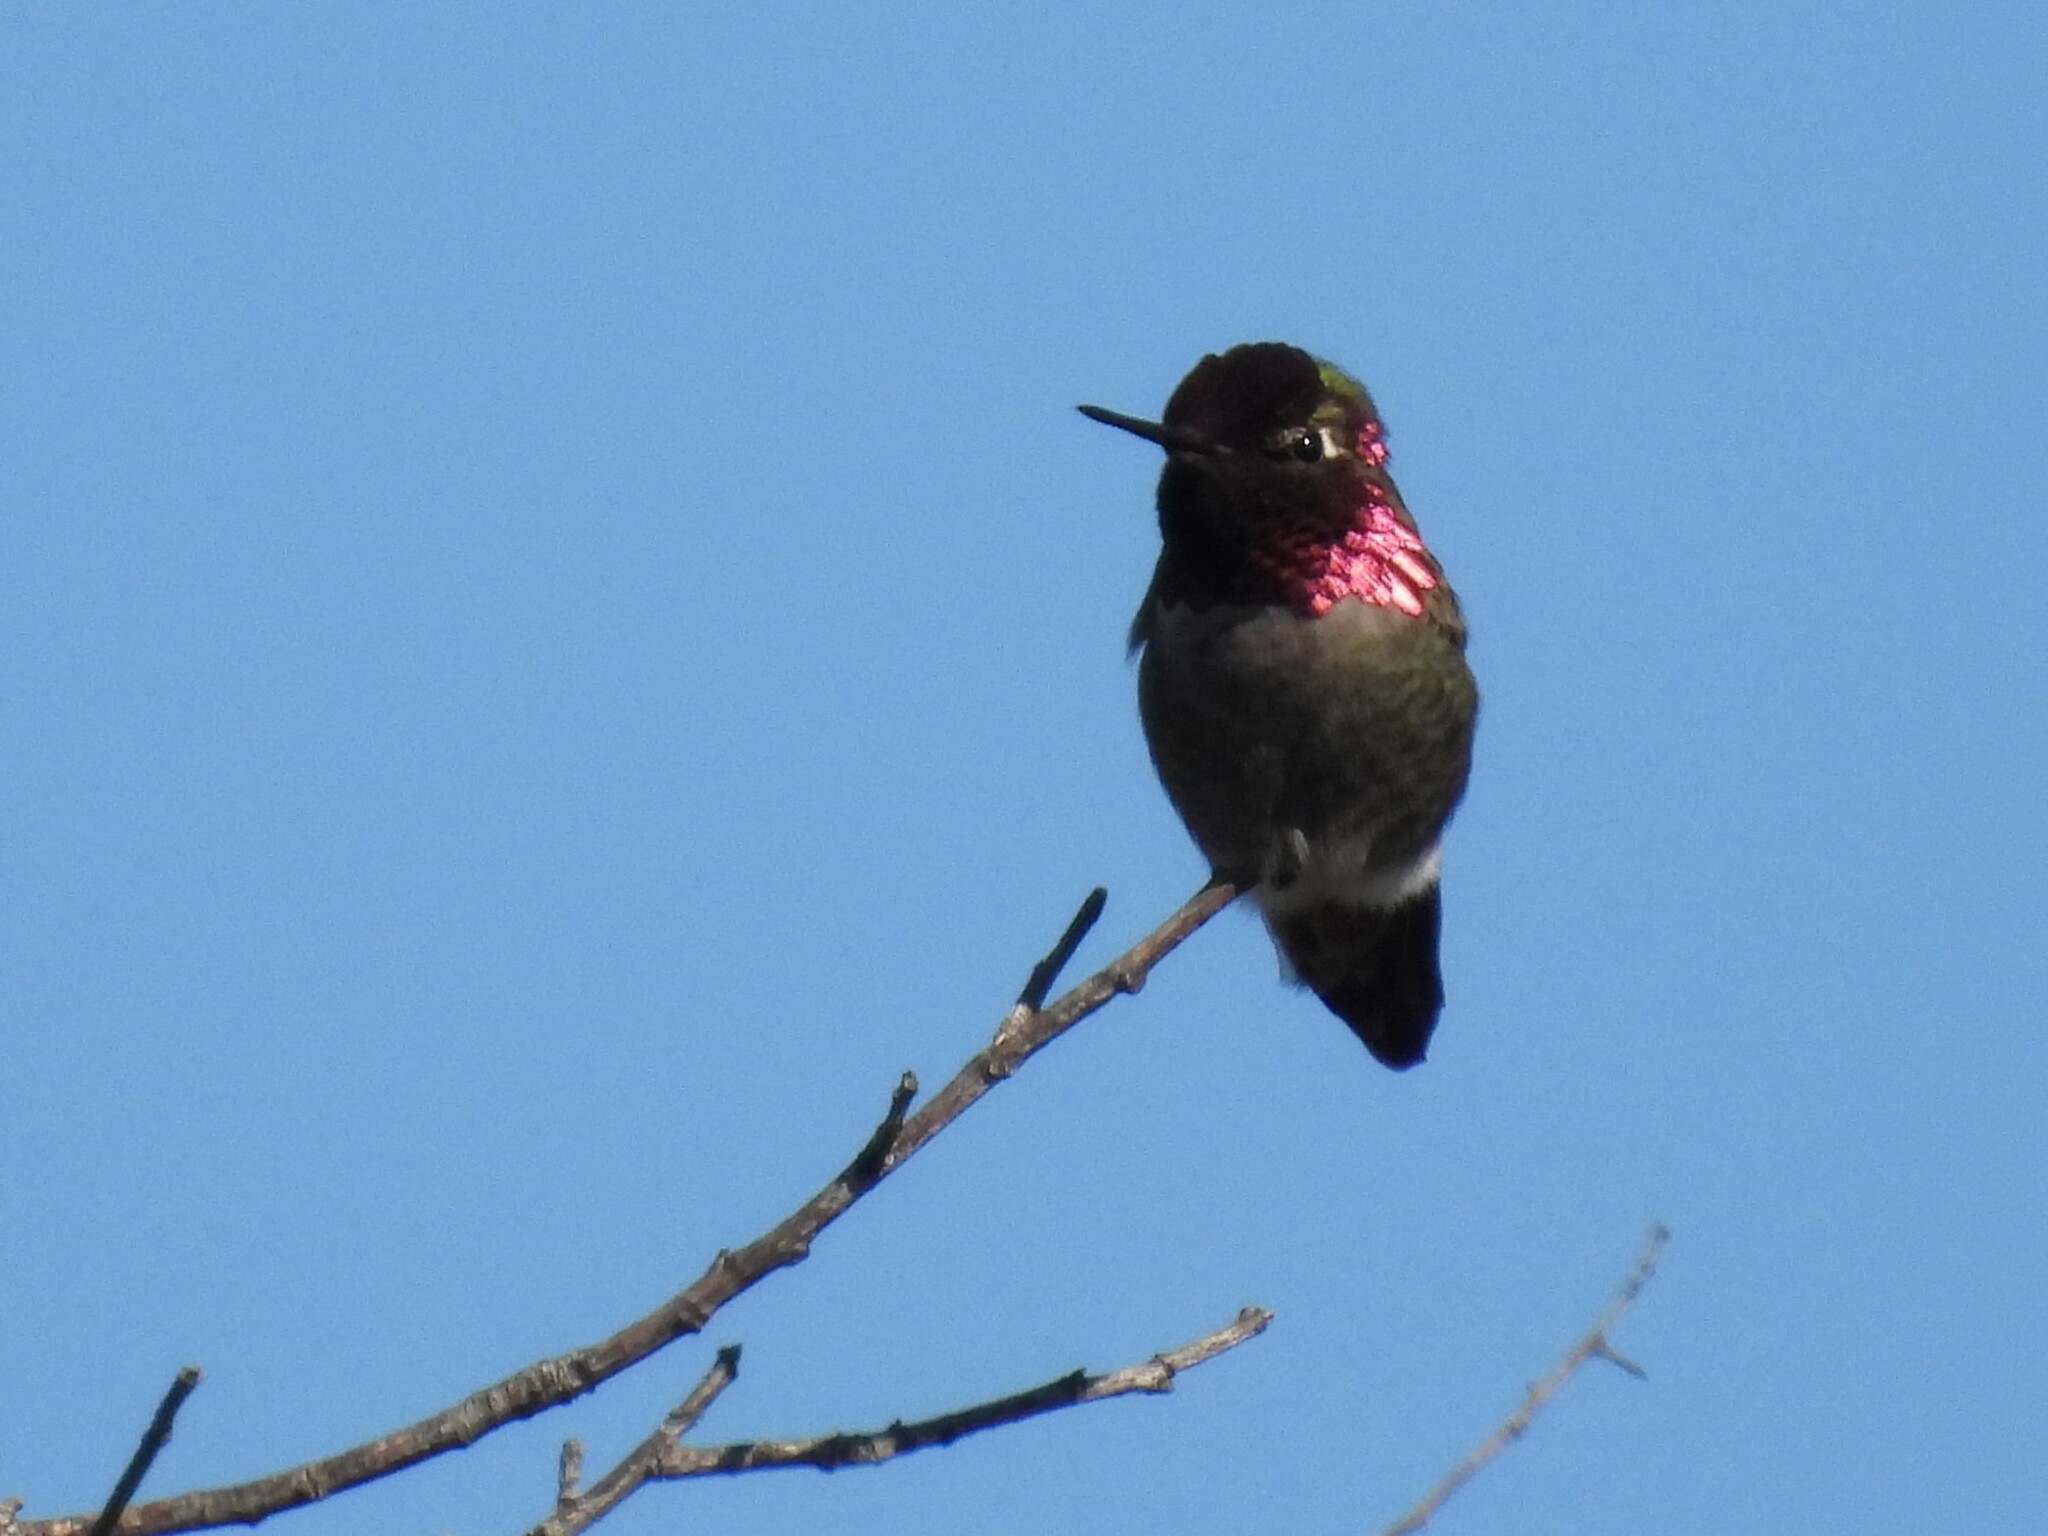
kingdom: Animalia
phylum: Chordata
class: Aves
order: Apodiformes
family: Trochilidae
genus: Calypte
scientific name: Calypte anna
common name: Anna's hummingbird
